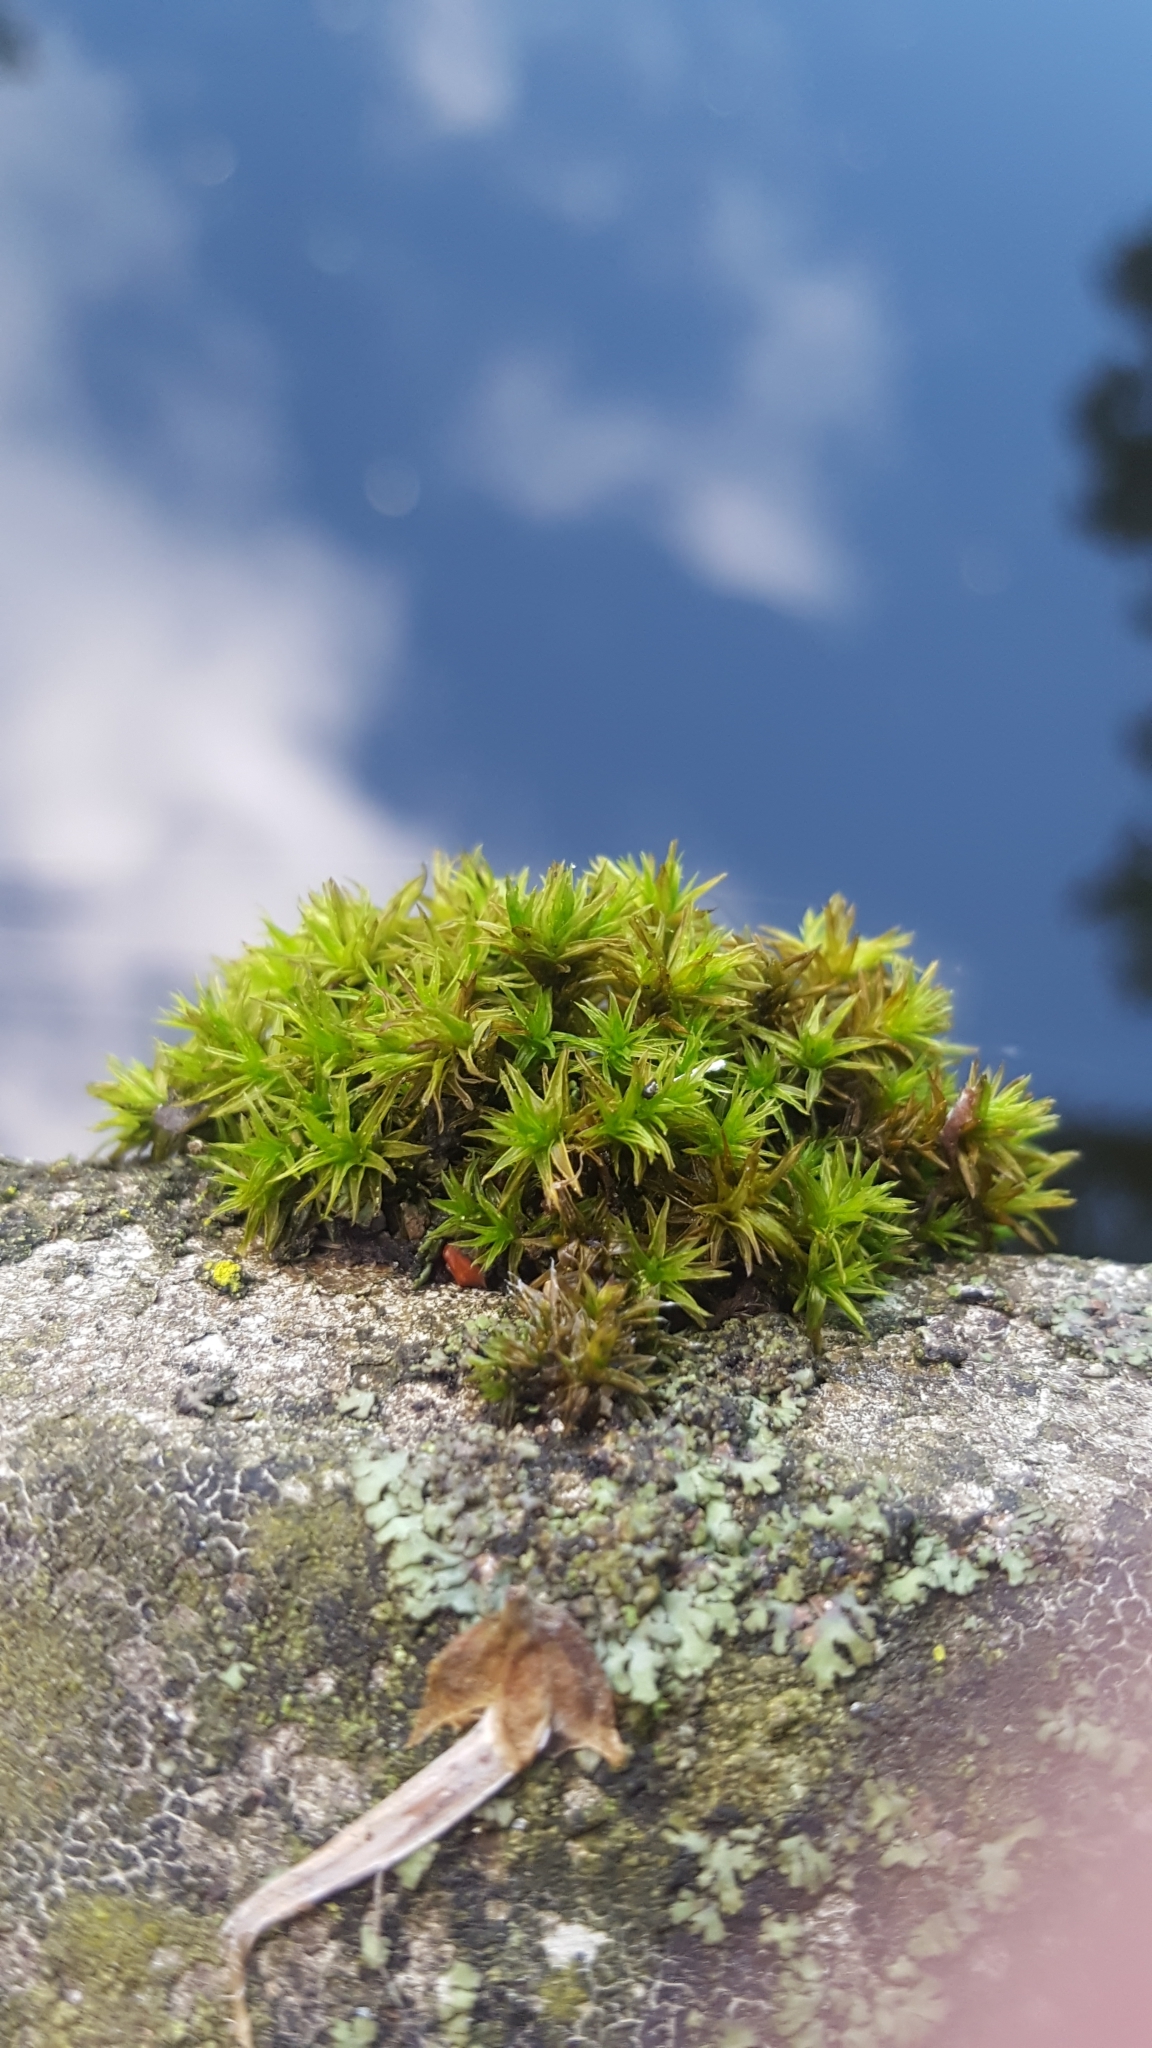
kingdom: Plantae
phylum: Bryophyta
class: Bryopsida
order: Orthotrichales
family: Orthotrichaceae
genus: Lewinskya
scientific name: Lewinskya affinis
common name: Wood bristle-moss
